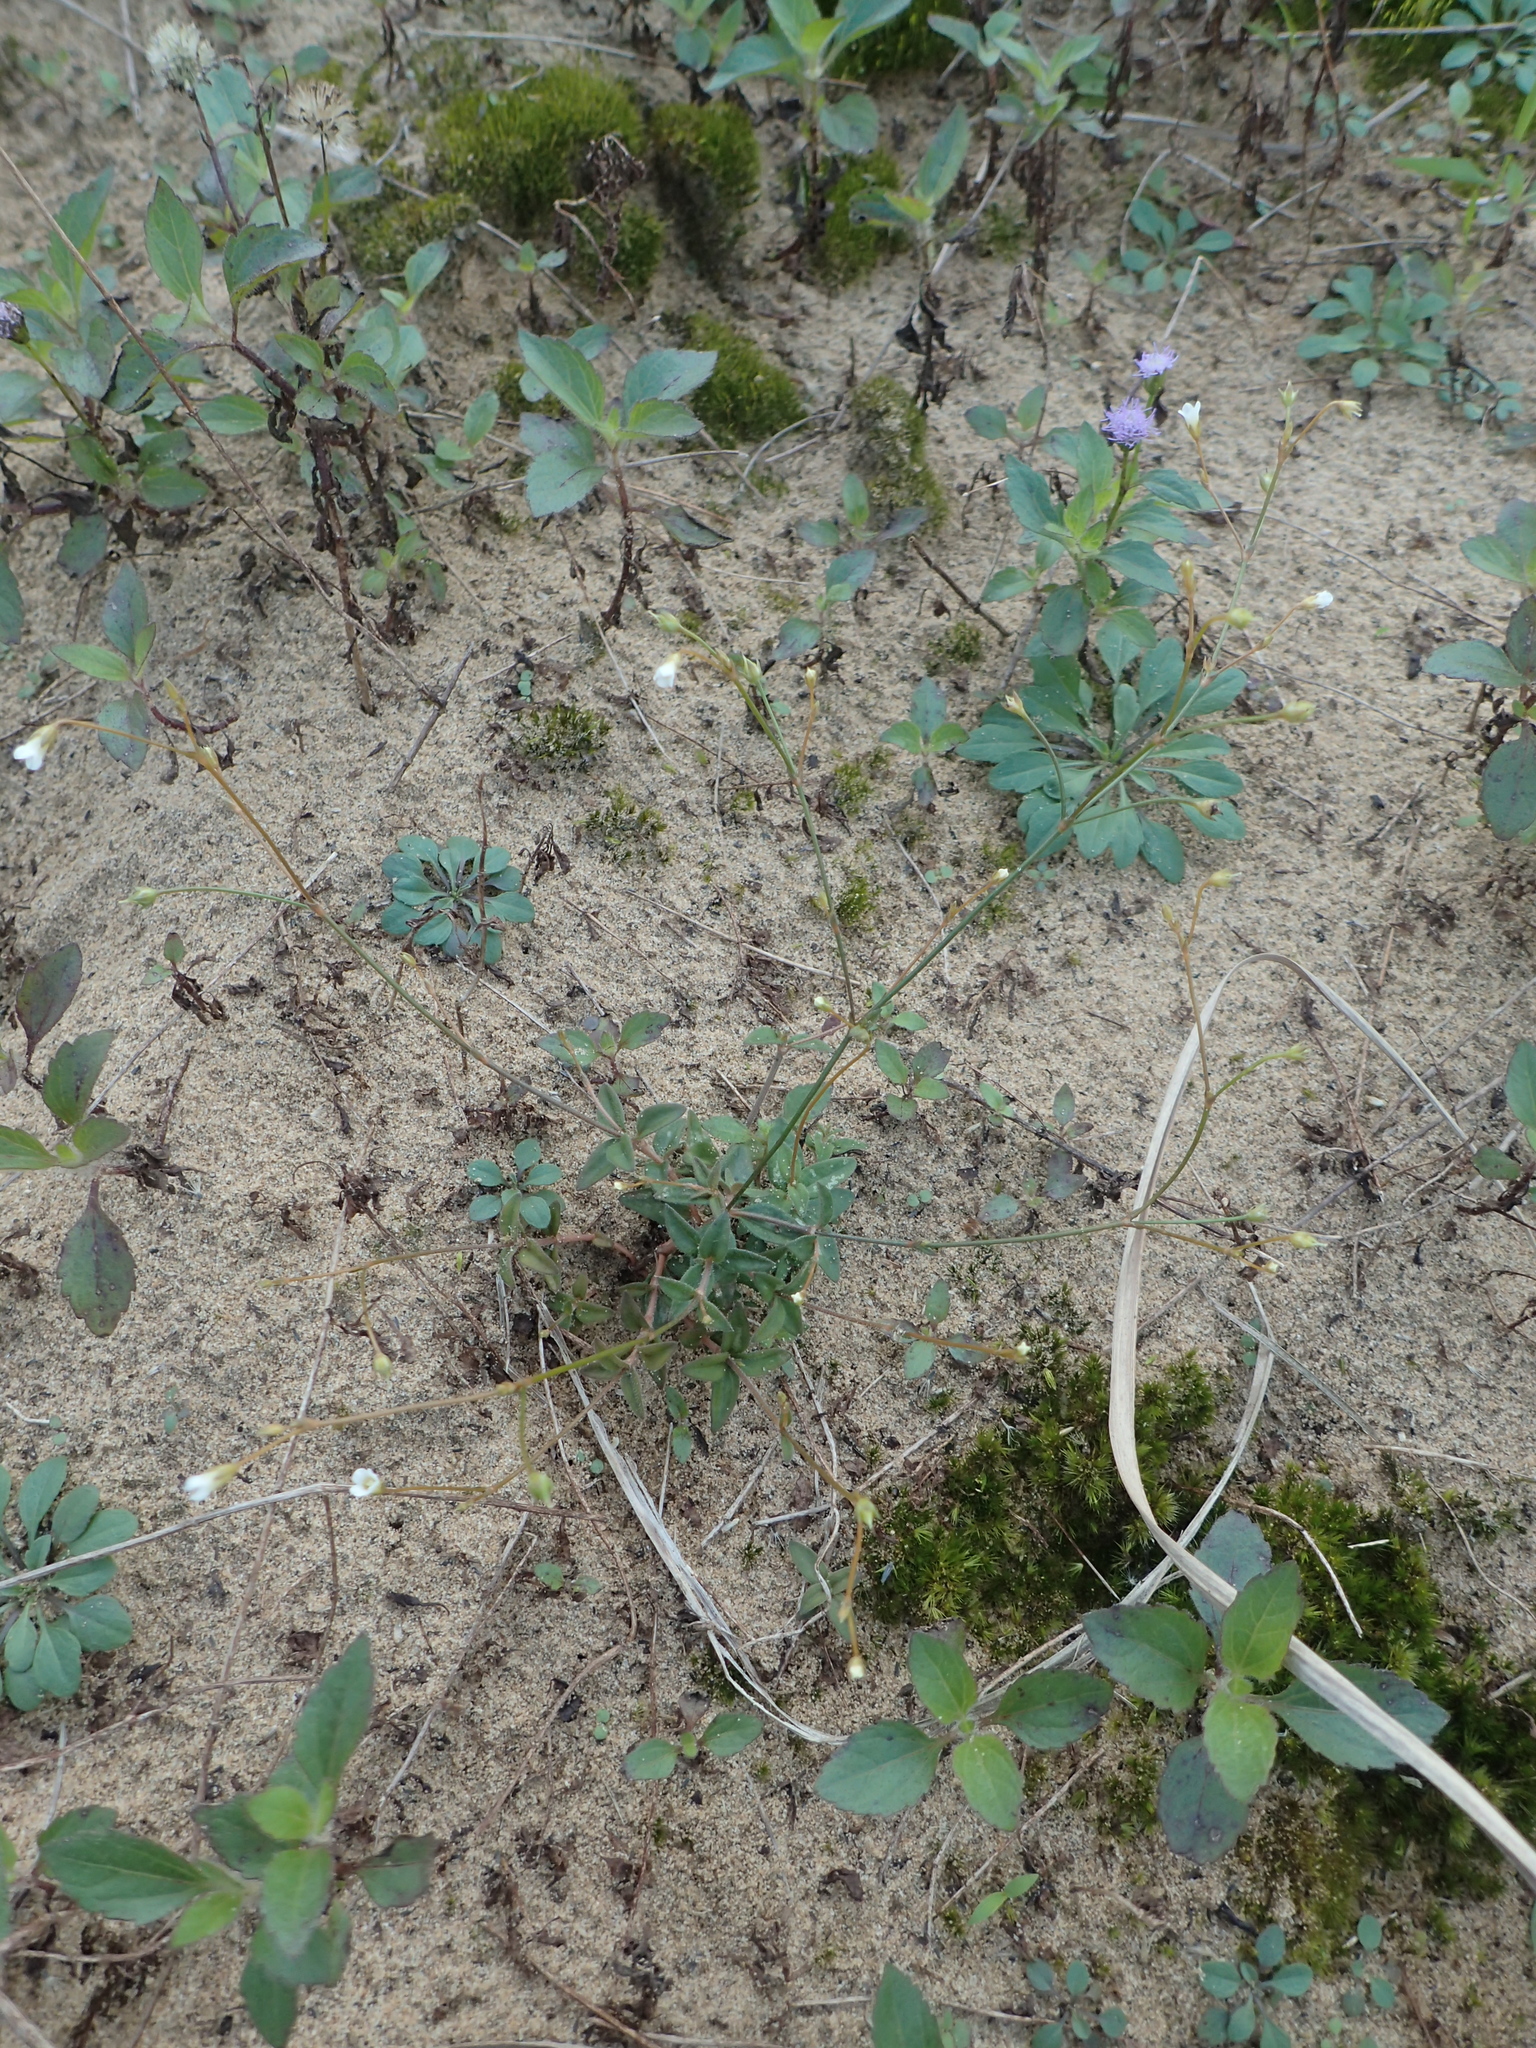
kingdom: Plantae
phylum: Tracheophyta
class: Magnoliopsida
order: Gentianales
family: Loganiaceae
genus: Mitrasacme
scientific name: Mitrasacme pygmaea
